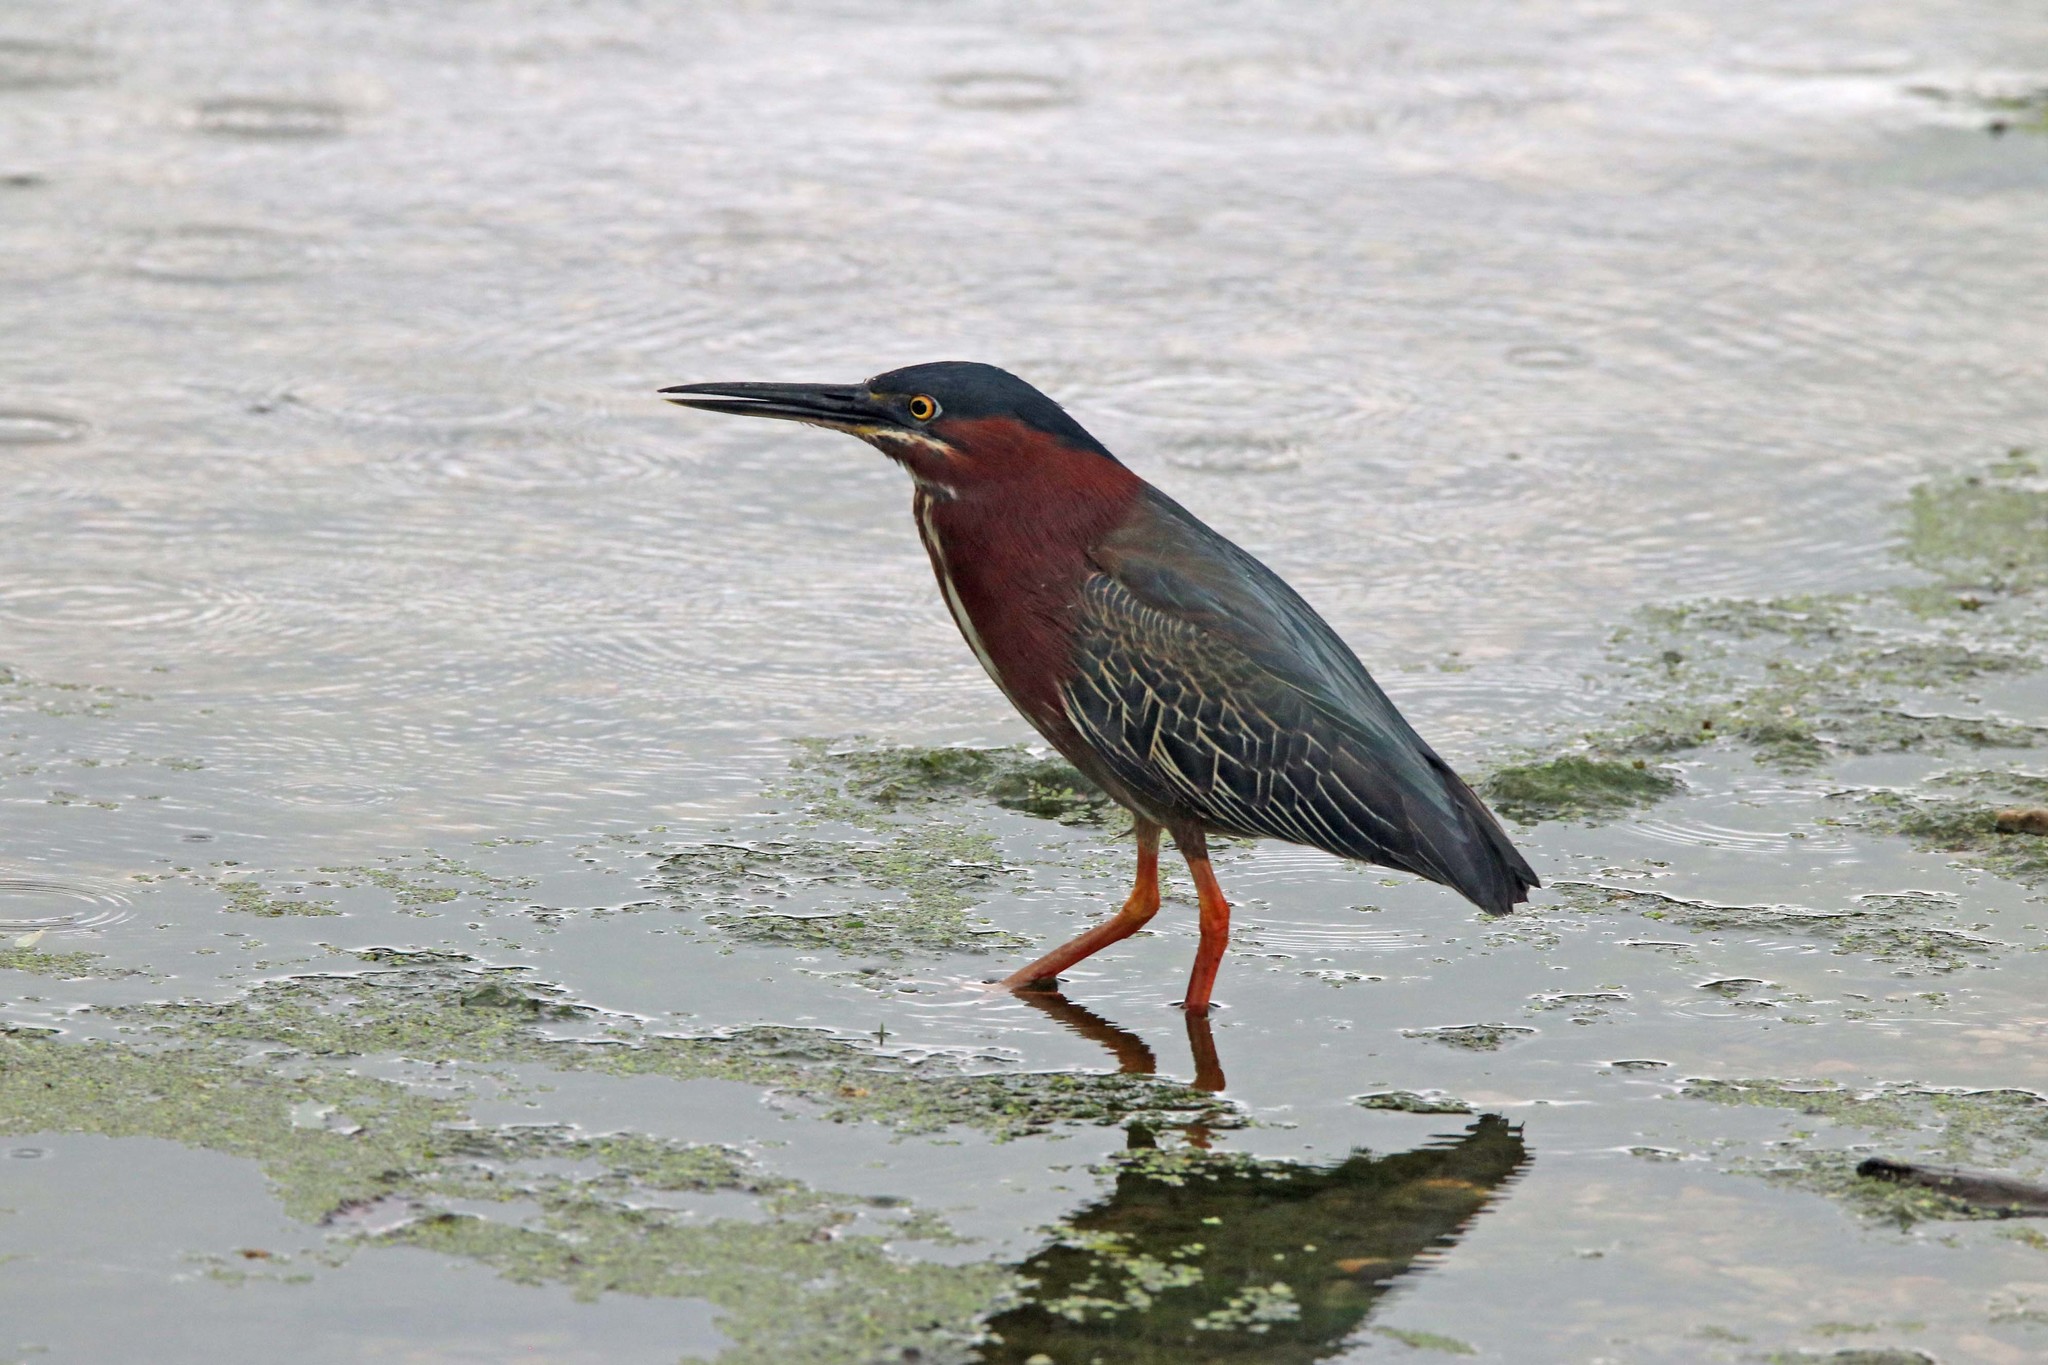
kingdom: Animalia
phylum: Chordata
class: Aves
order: Pelecaniformes
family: Ardeidae
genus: Butorides
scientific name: Butorides virescens
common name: Green heron
